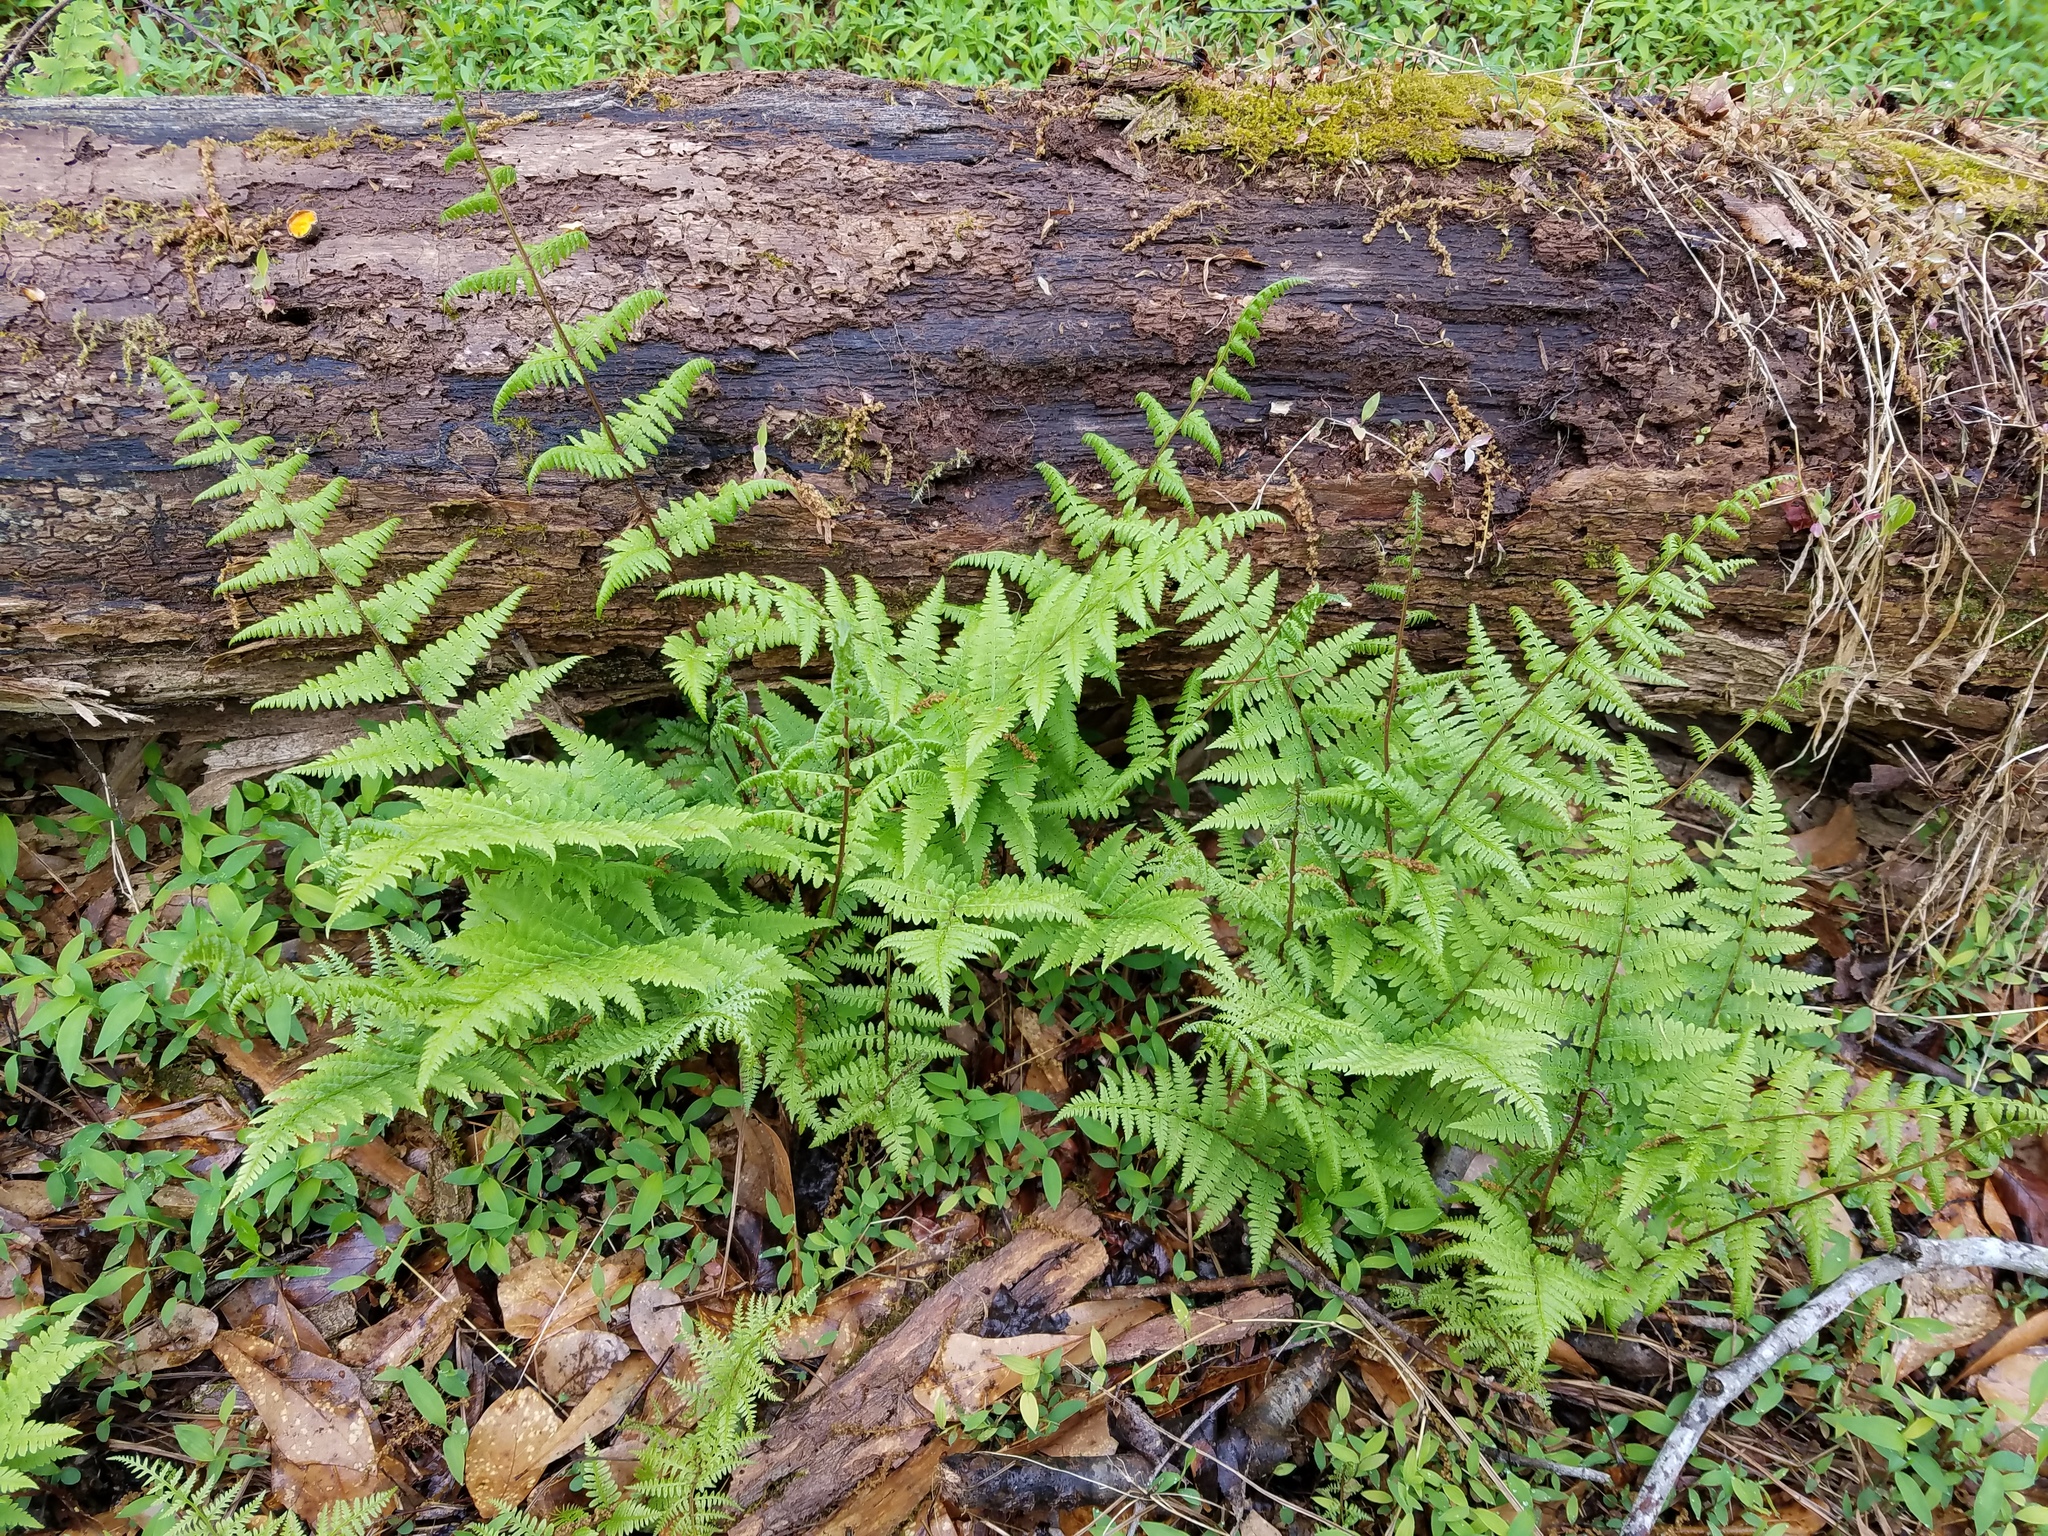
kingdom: Plantae
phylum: Tracheophyta
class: Polypodiopsida
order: Polypodiales
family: Athyriaceae
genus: Athyrium
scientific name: Athyrium asplenioides
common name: Southern lady fern
